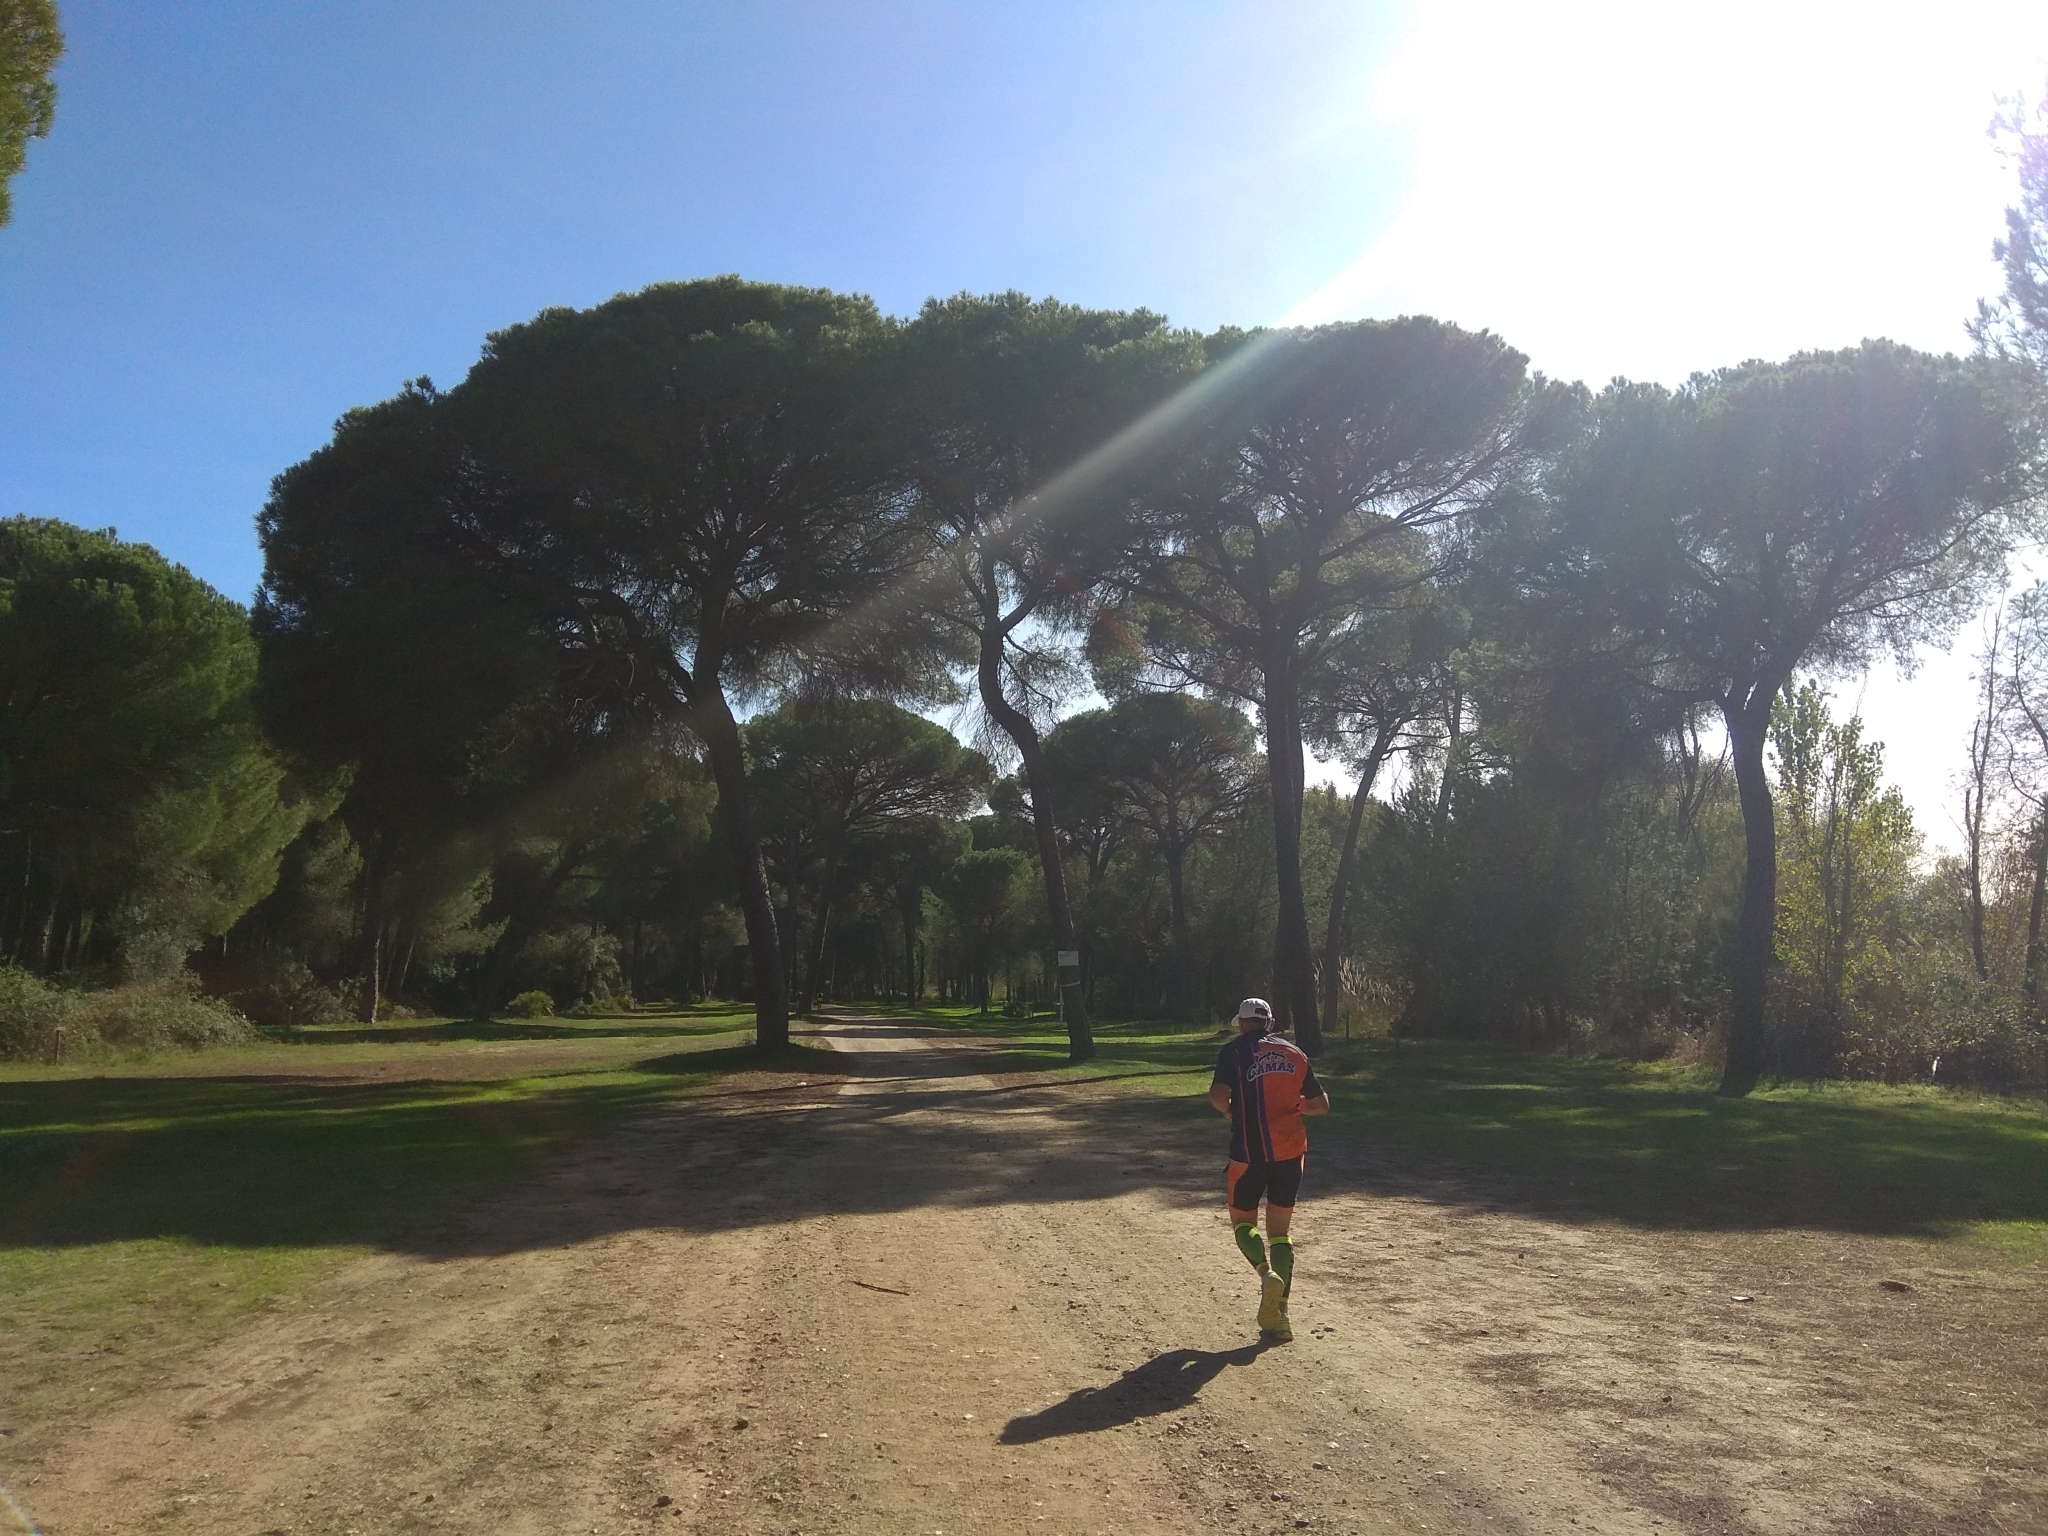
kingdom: Plantae
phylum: Tracheophyta
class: Pinopsida
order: Pinales
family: Pinaceae
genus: Pinus
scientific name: Pinus pinea
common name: Italian stone pine
